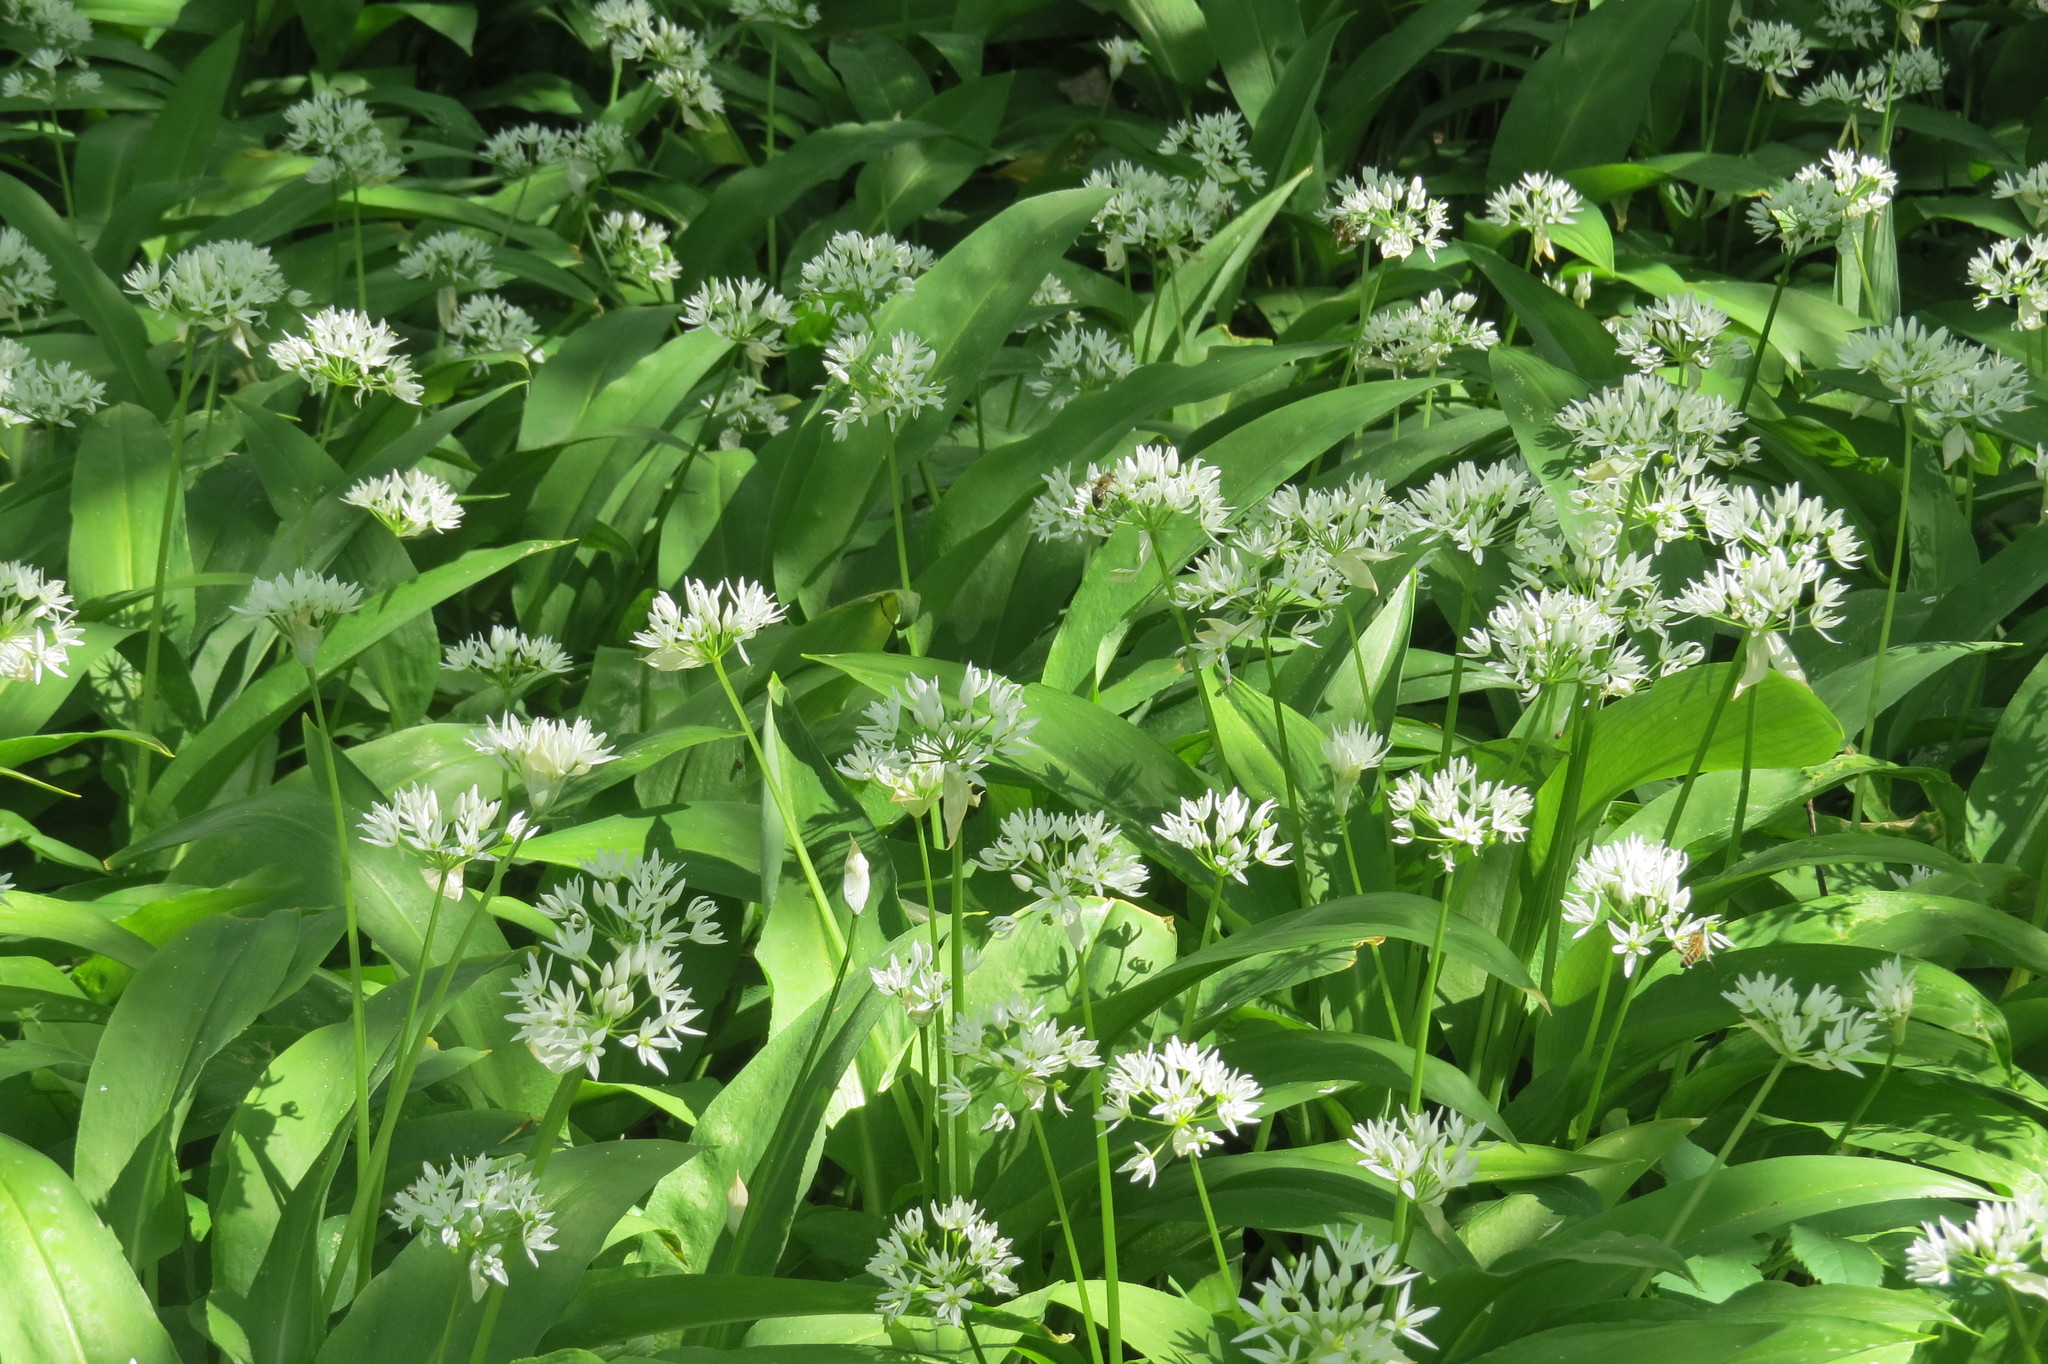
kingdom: Plantae
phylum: Tracheophyta
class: Liliopsida
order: Asparagales
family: Amaryllidaceae
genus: Allium
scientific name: Allium ursinum
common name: Ramsons
